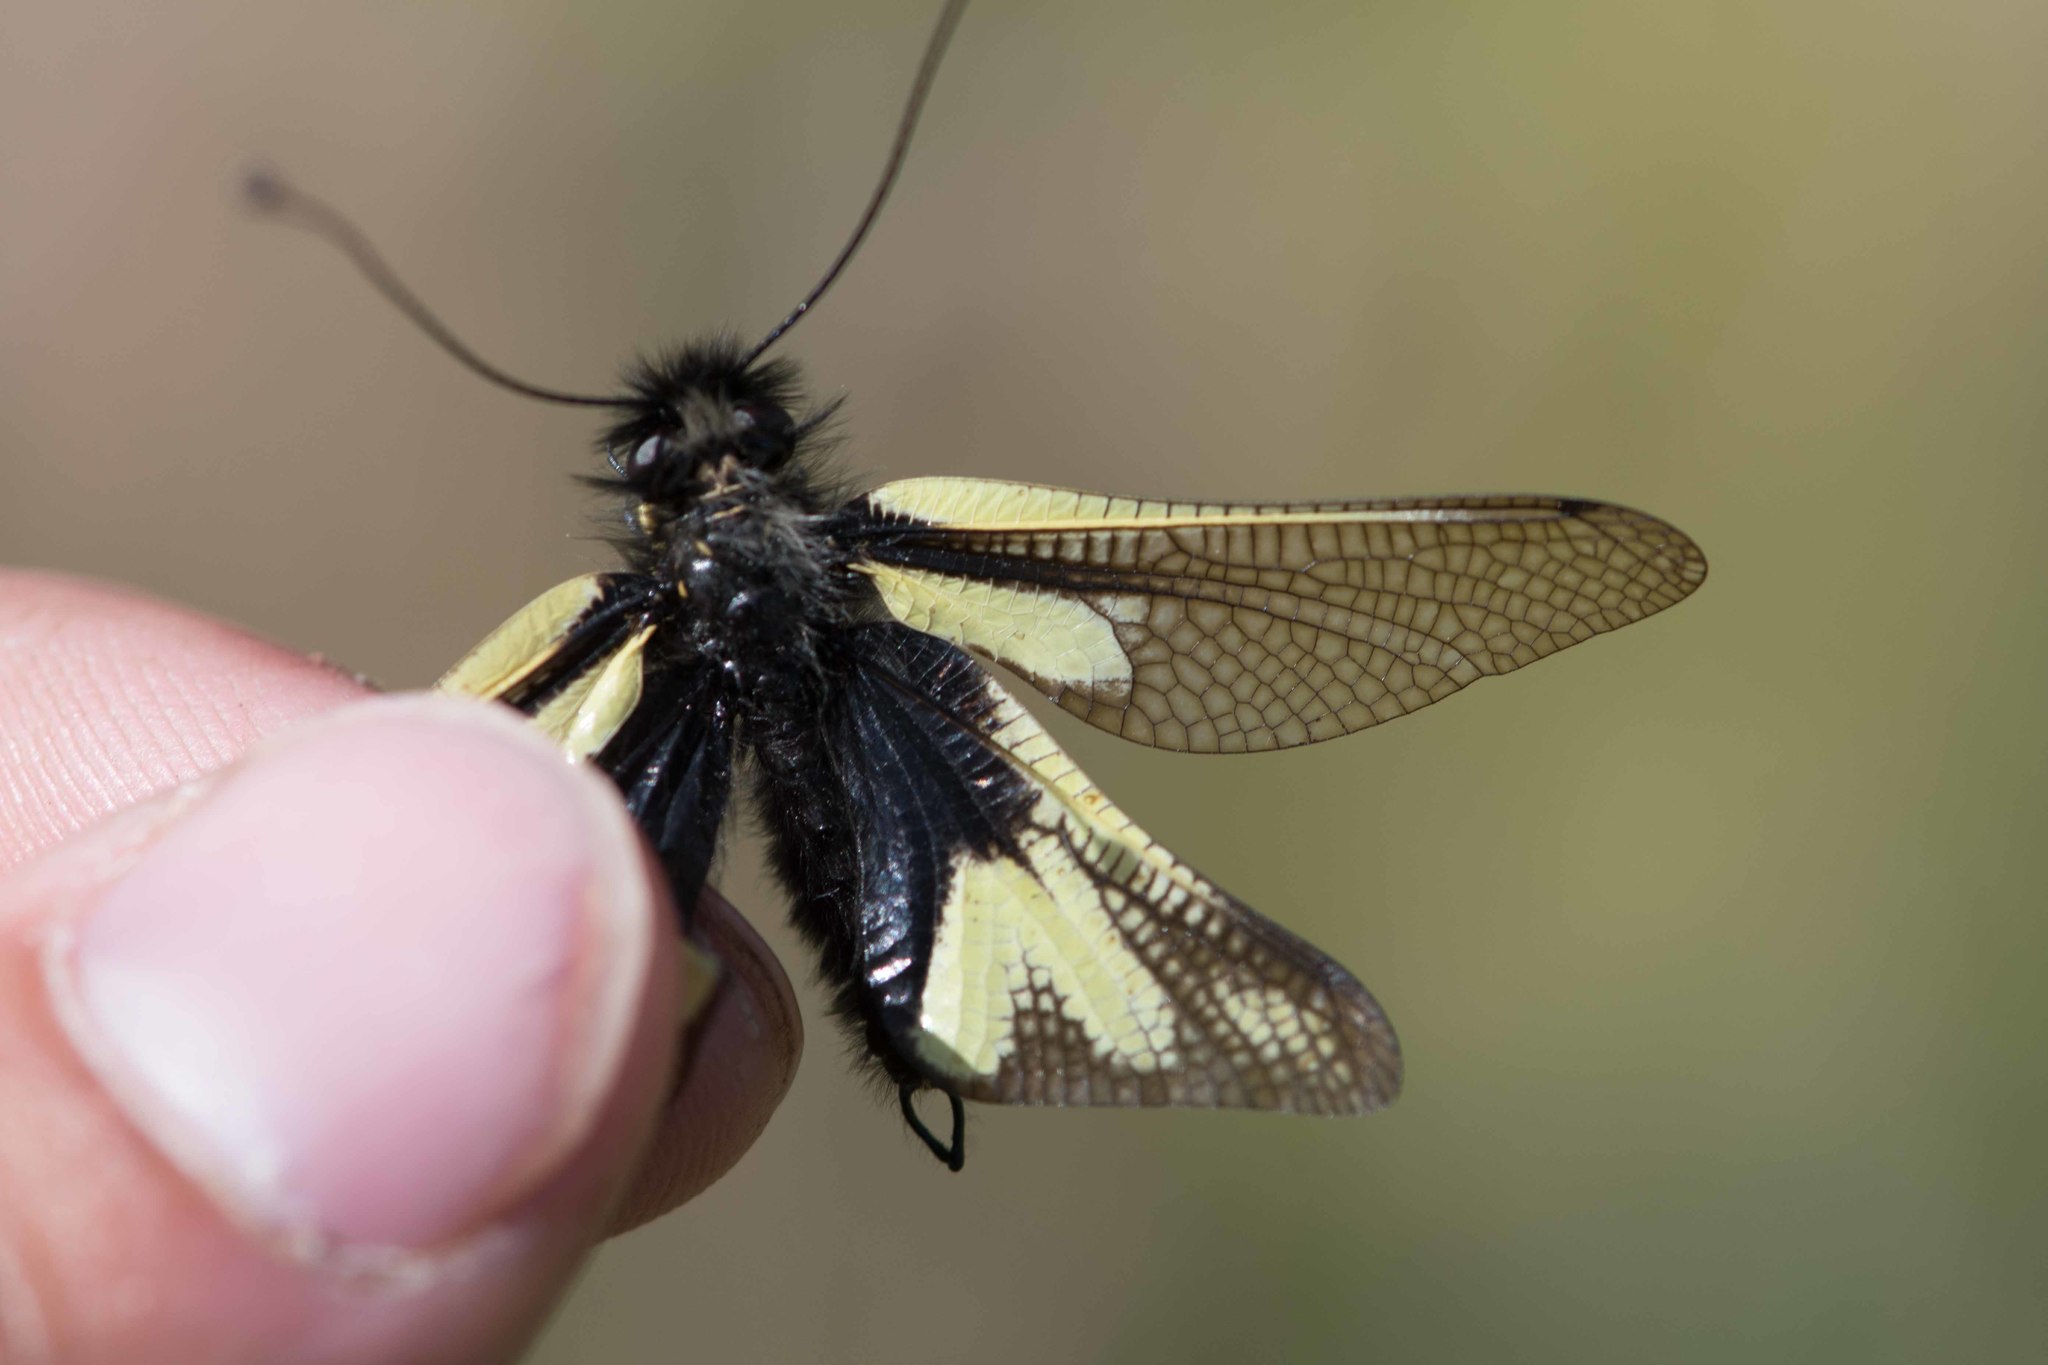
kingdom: Animalia
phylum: Arthropoda
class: Insecta
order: Neuroptera
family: Ascalaphidae
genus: Libelloides
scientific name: Libelloides coccajus
